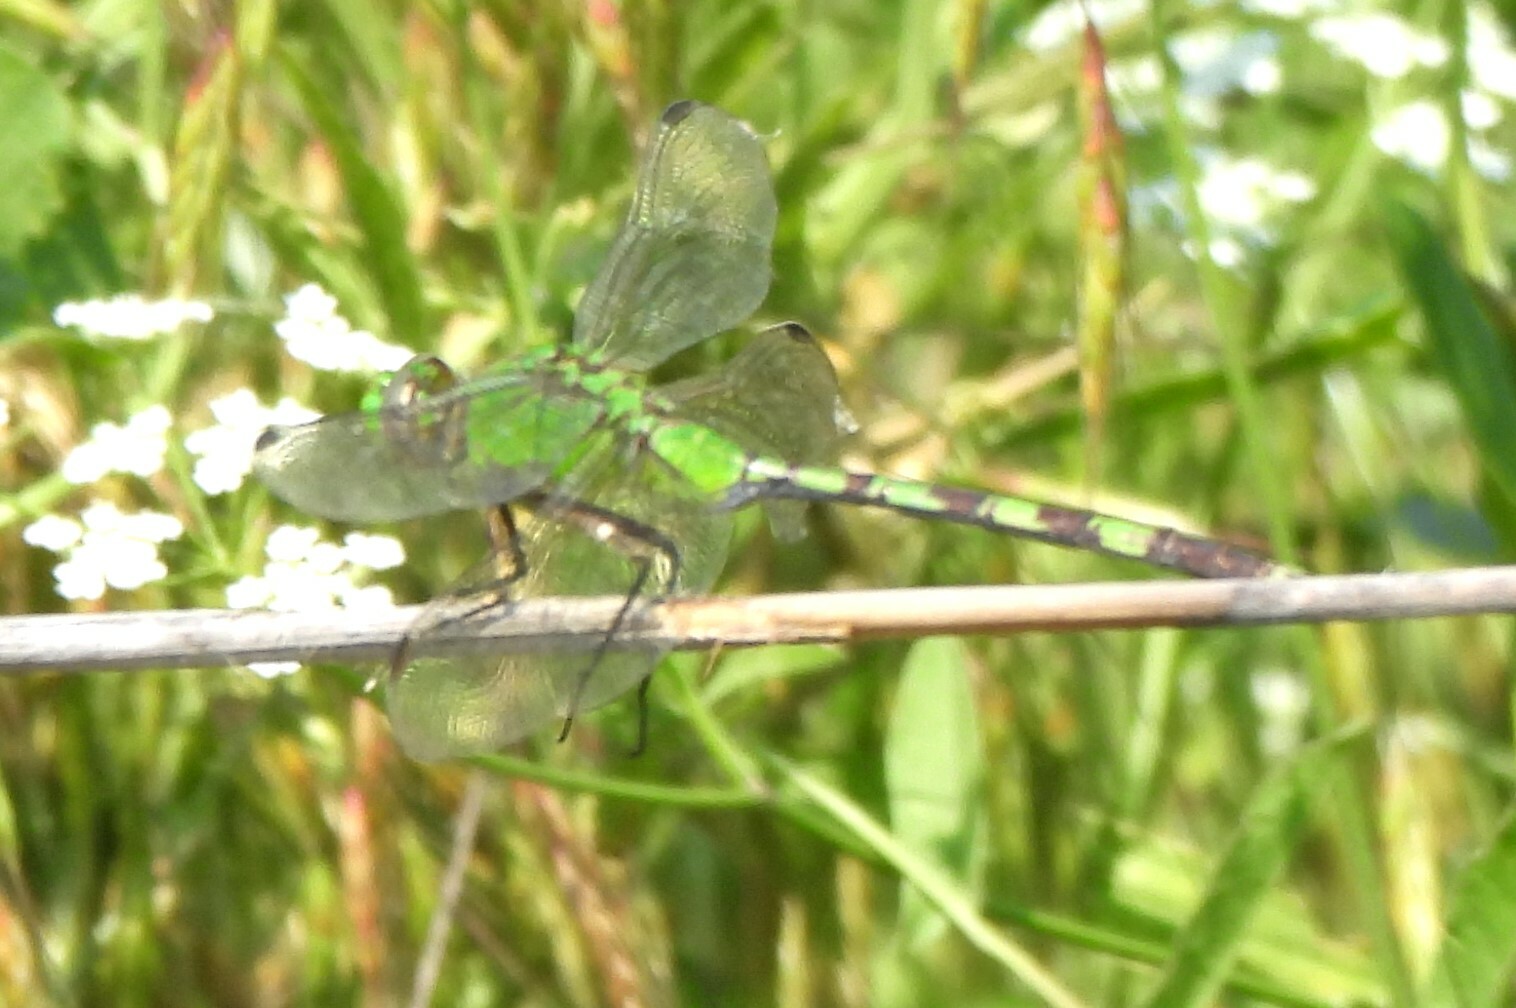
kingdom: Animalia
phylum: Arthropoda
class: Insecta
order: Odonata
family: Libellulidae
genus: Erythemis
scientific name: Erythemis vesiculosa
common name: Great pondhawk
